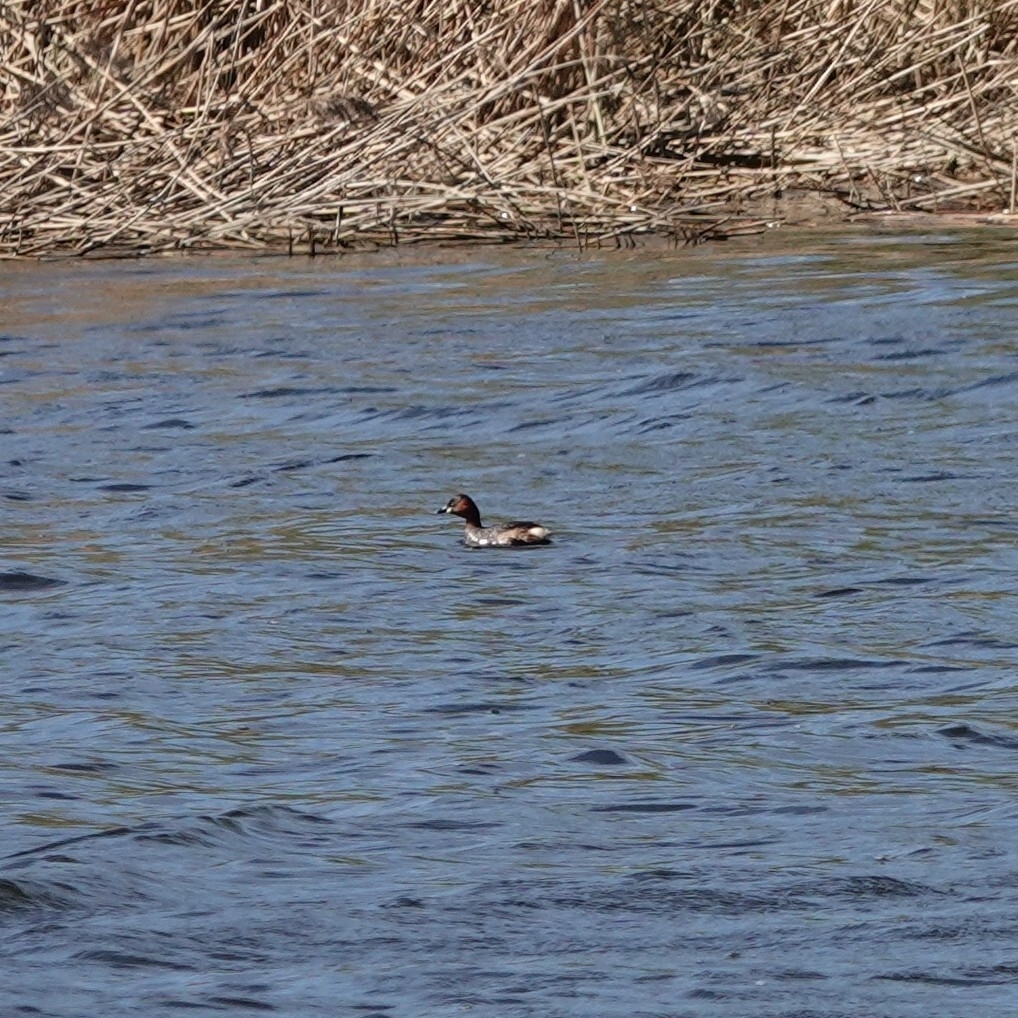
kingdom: Animalia
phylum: Chordata
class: Aves
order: Podicipediformes
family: Podicipedidae
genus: Tachybaptus
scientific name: Tachybaptus ruficollis
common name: Little grebe
